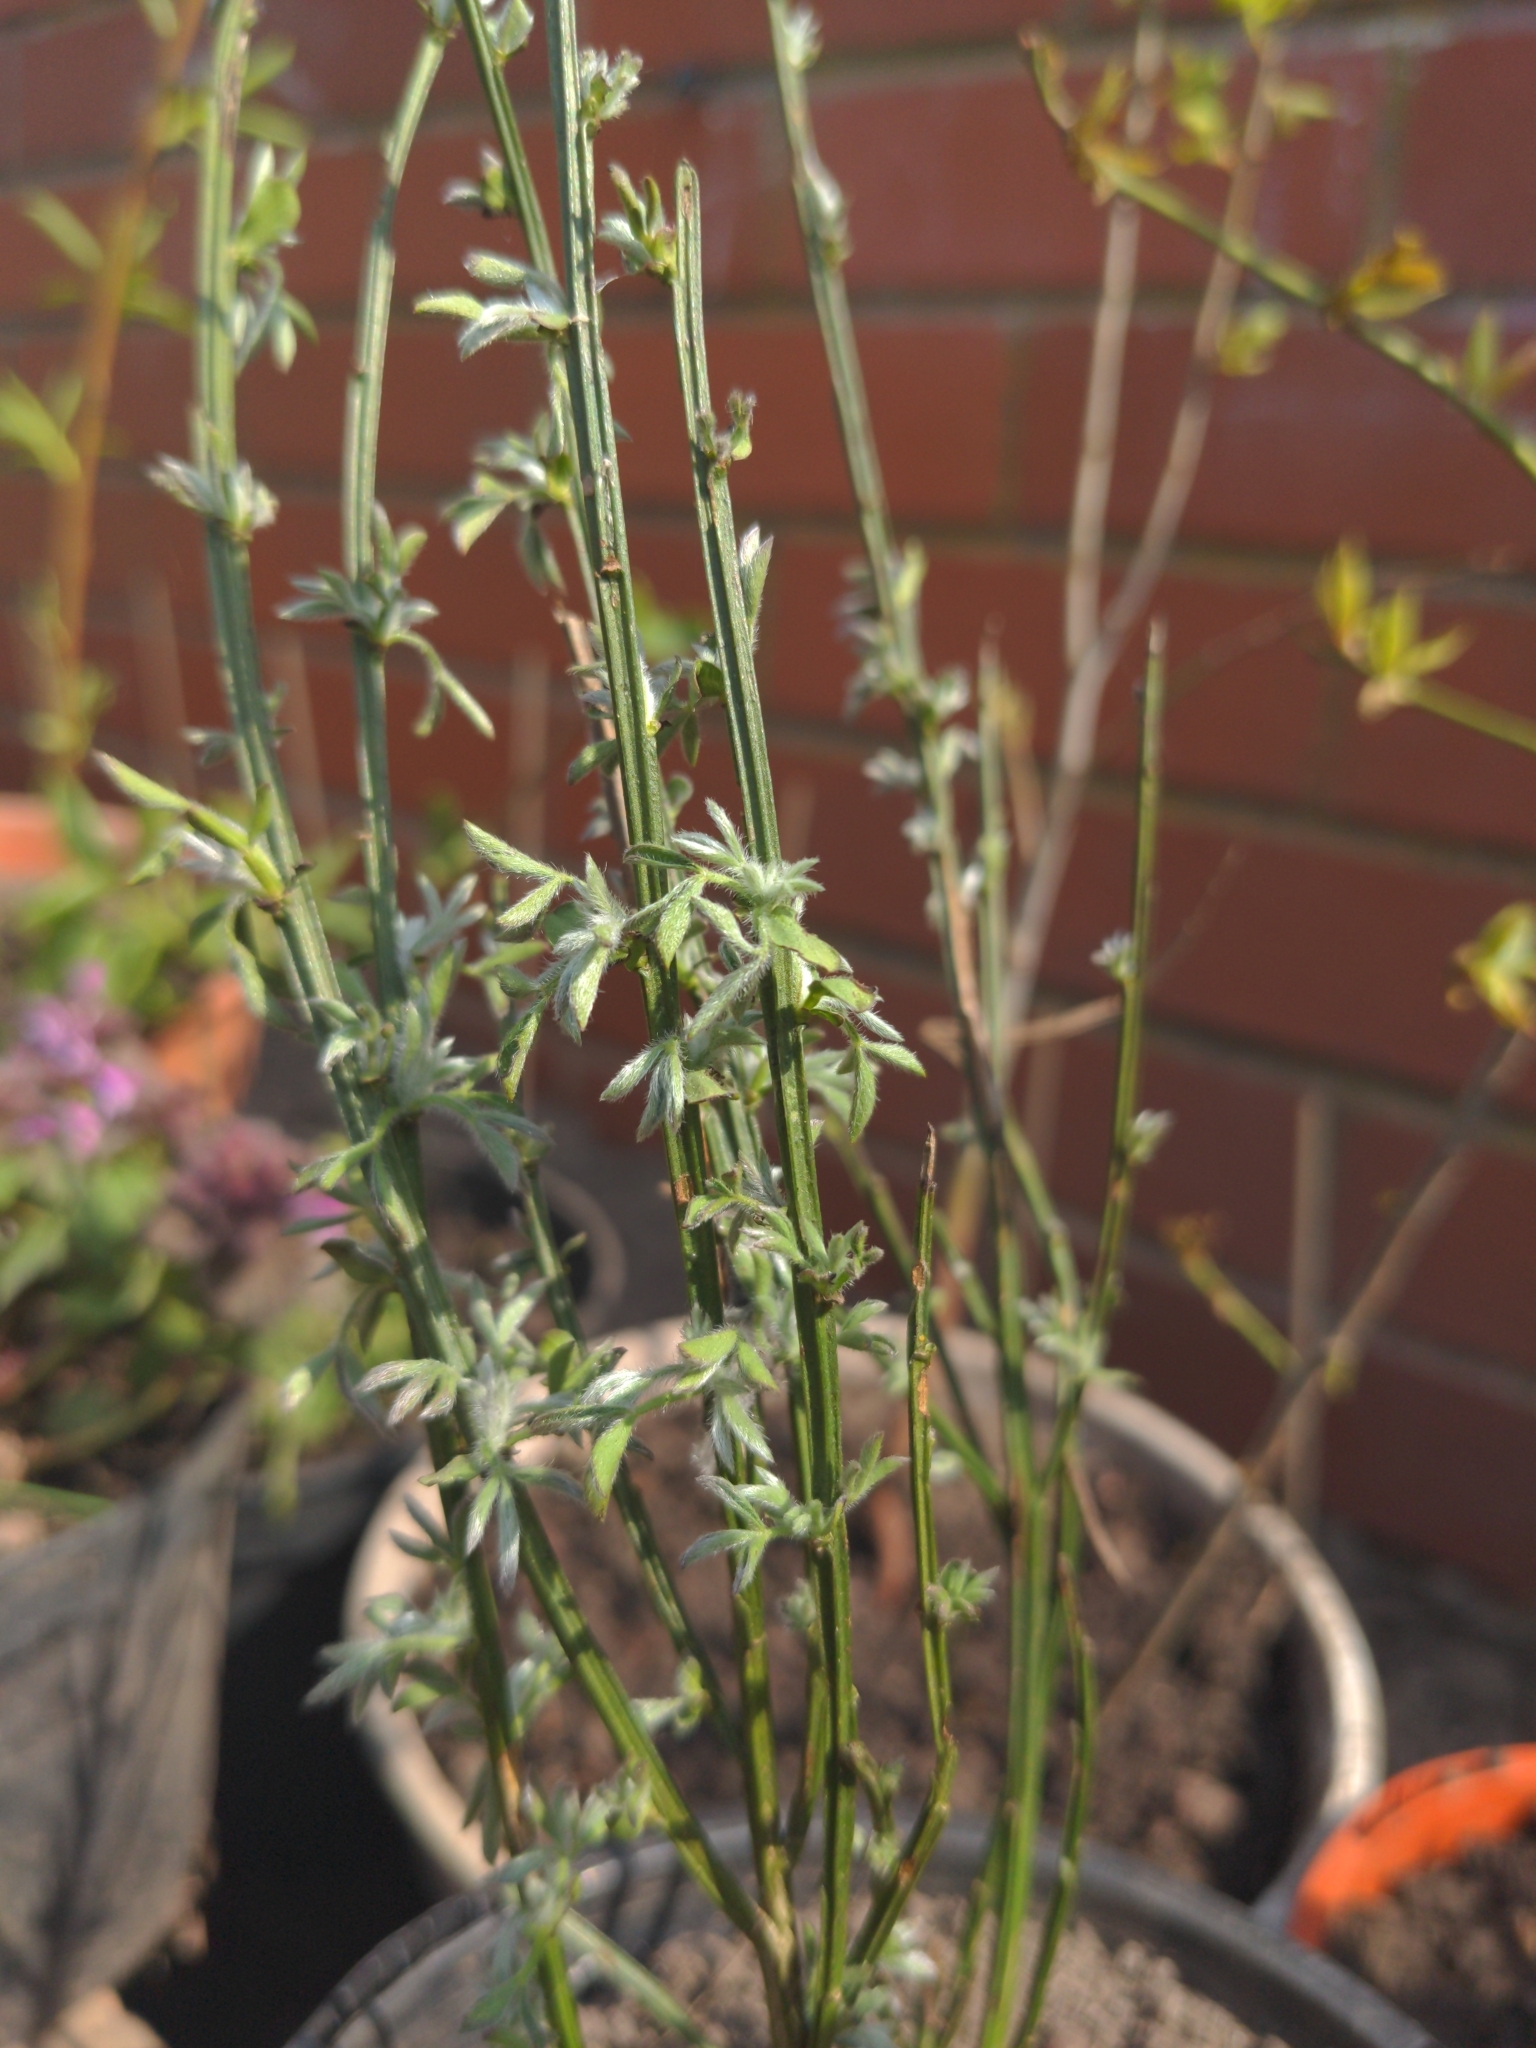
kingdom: Plantae
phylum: Tracheophyta
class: Magnoliopsida
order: Fabales
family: Fabaceae
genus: Cytisus
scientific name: Cytisus scoparius
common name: Scotch broom
